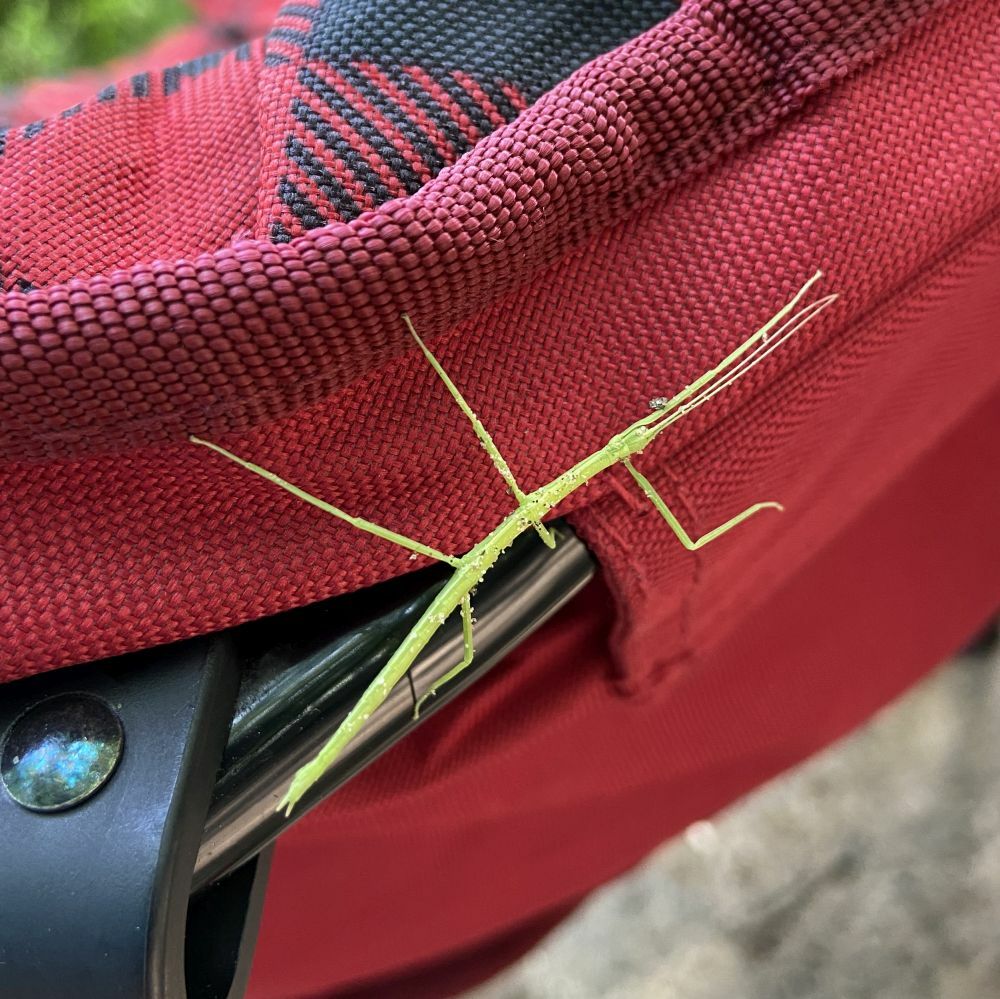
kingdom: Animalia
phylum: Arthropoda
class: Insecta
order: Phasmida
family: Diapheromeridae
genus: Diapheromera
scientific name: Diapheromera femorata
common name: Common american walkingstick
